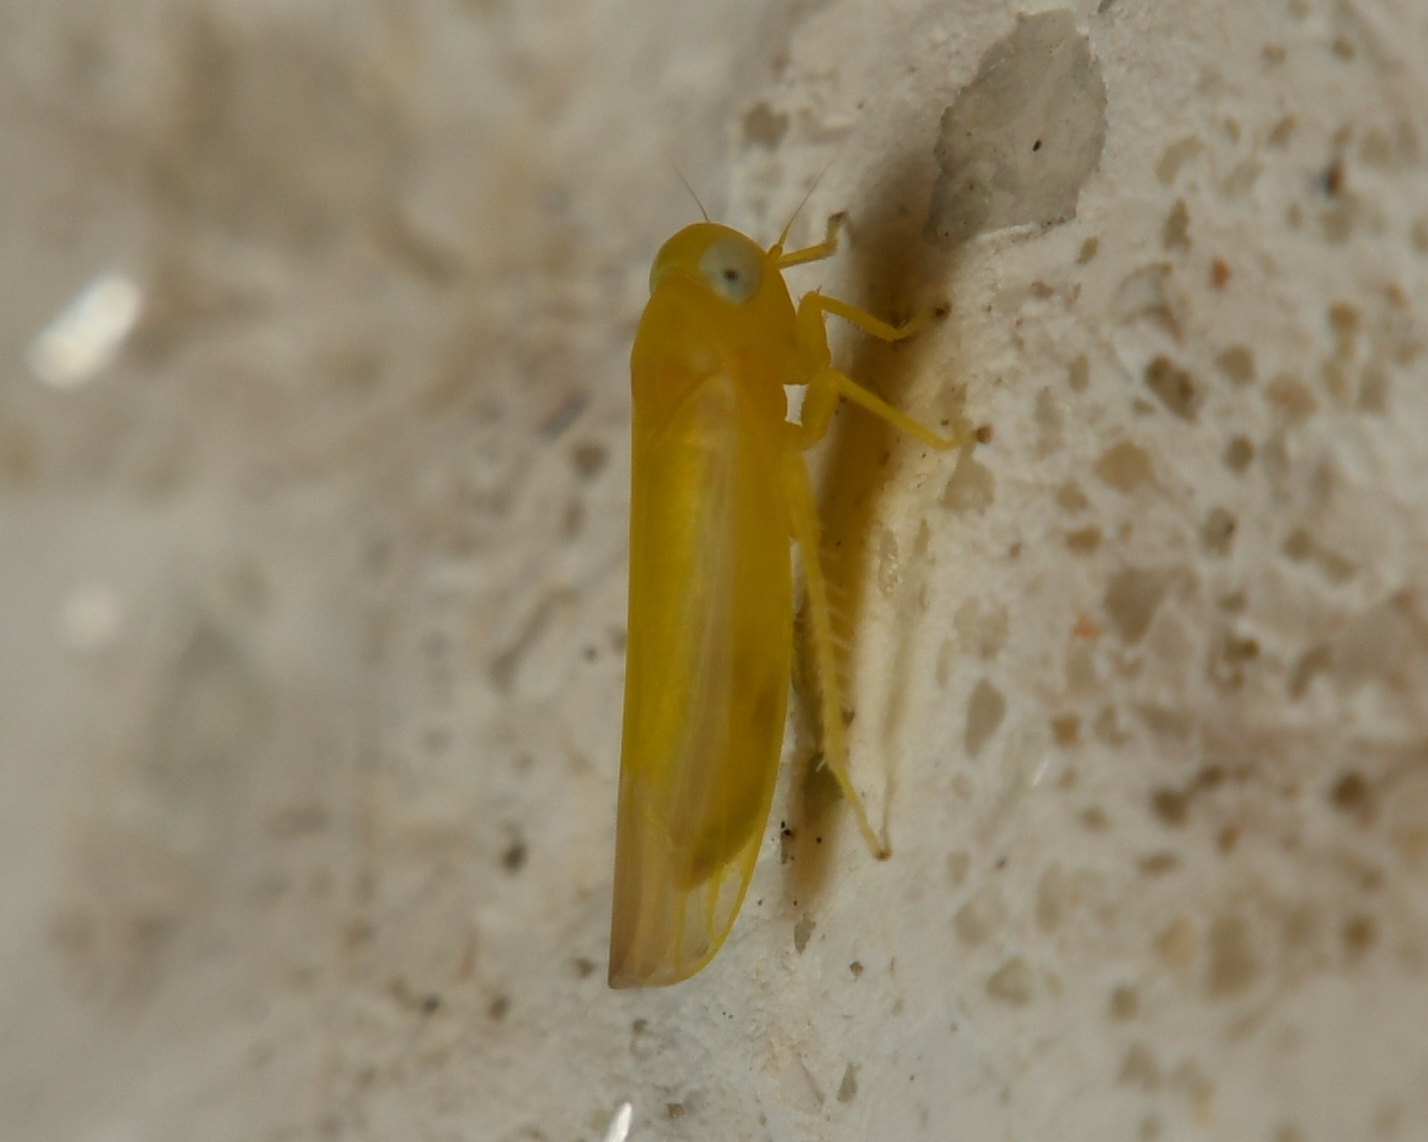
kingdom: Animalia
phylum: Arthropoda
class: Insecta
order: Hemiptera
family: Cicadellidae
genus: Alebra
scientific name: Alebra aurea
